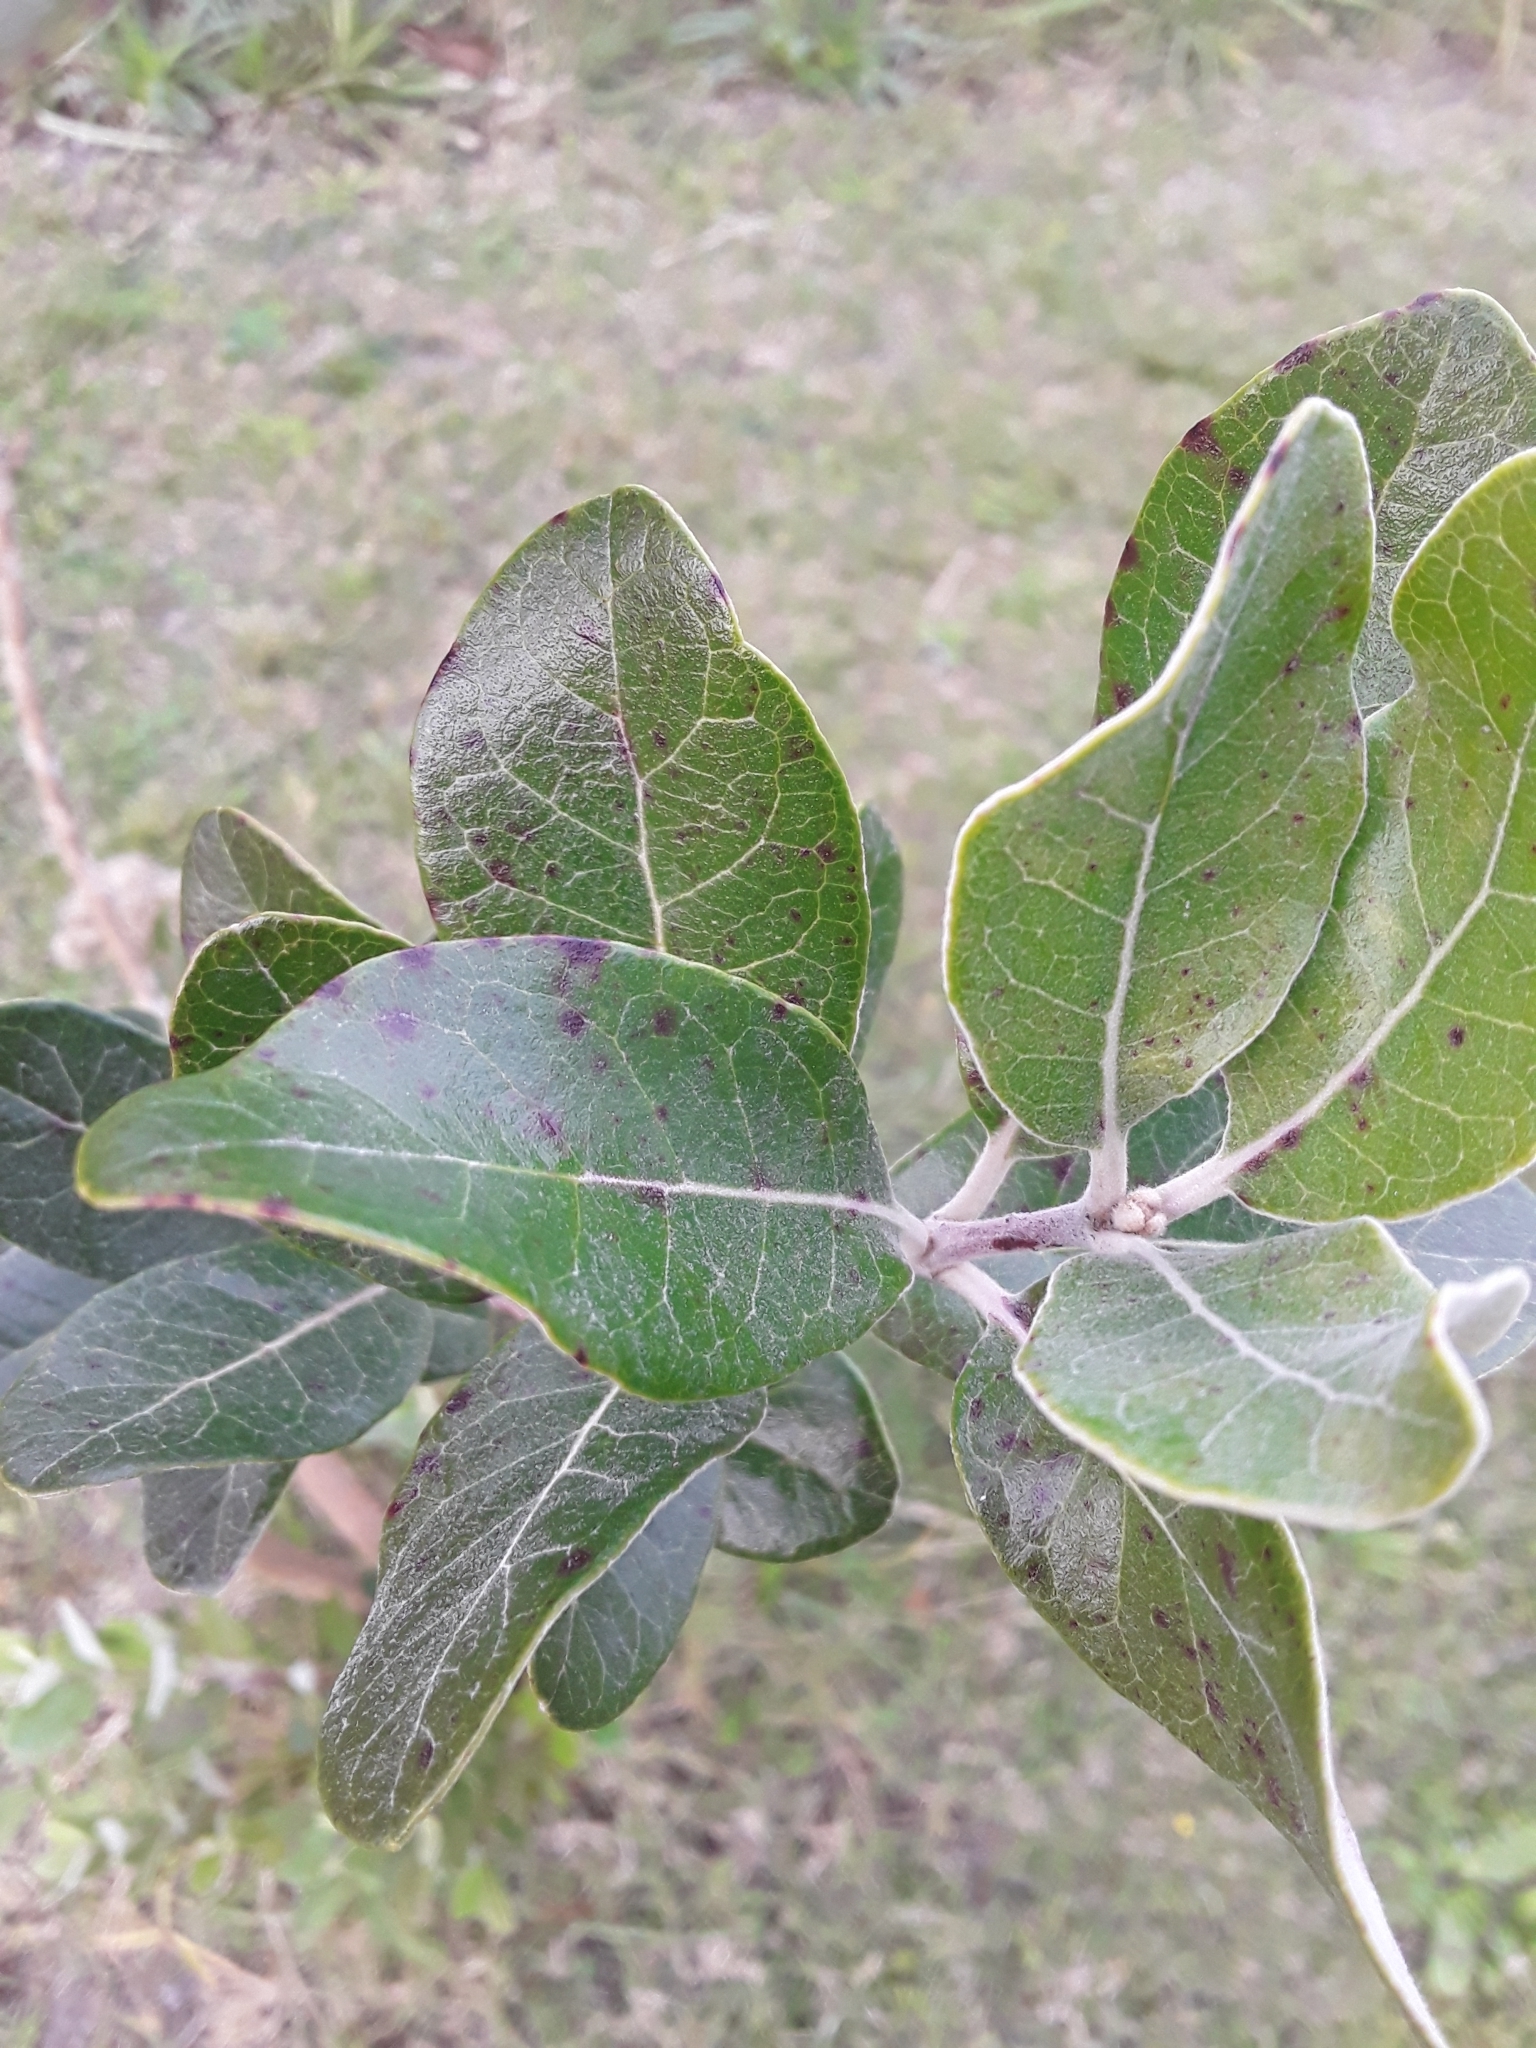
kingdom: Plantae
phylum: Tracheophyta
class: Magnoliopsida
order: Myrtales
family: Myrtaceae
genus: Feijoa
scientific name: Feijoa sellowiana
